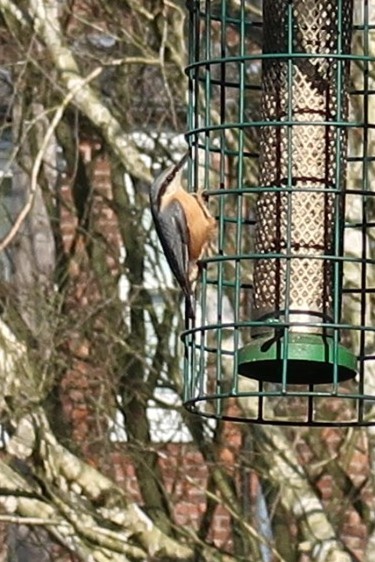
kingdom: Animalia
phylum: Chordata
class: Aves
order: Passeriformes
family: Sittidae
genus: Sitta
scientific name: Sitta europaea
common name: Eurasian nuthatch
